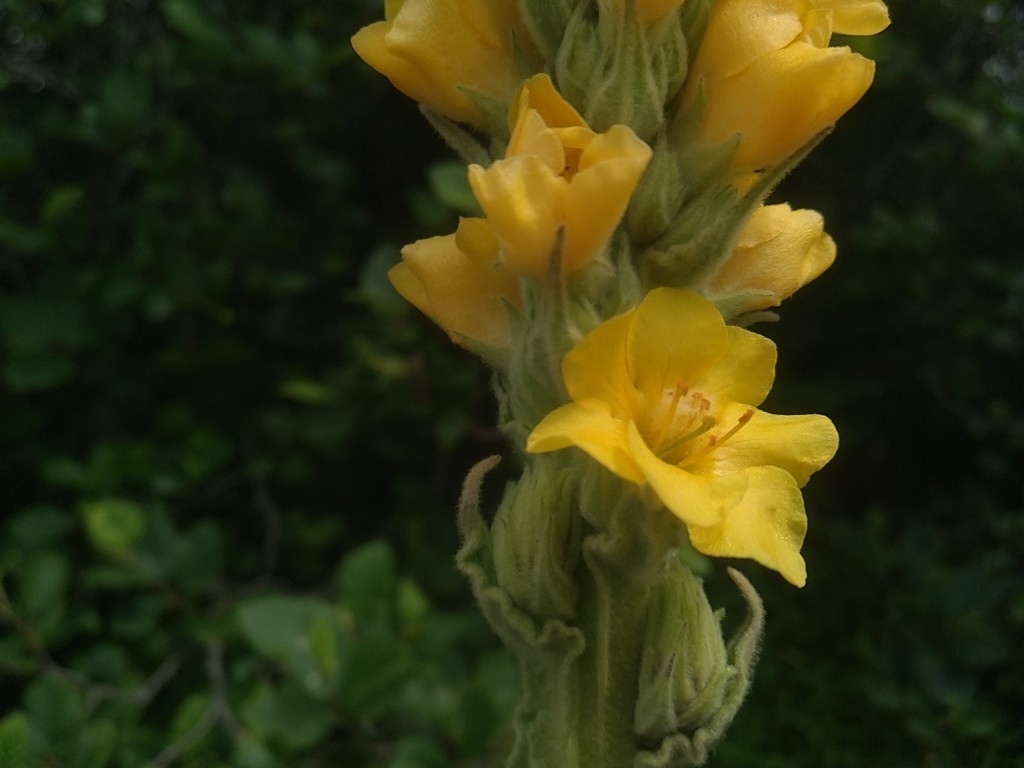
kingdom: Plantae
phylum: Tracheophyta
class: Magnoliopsida
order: Lamiales
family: Scrophulariaceae
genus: Verbascum
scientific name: Verbascum thapsus
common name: Common mullein
